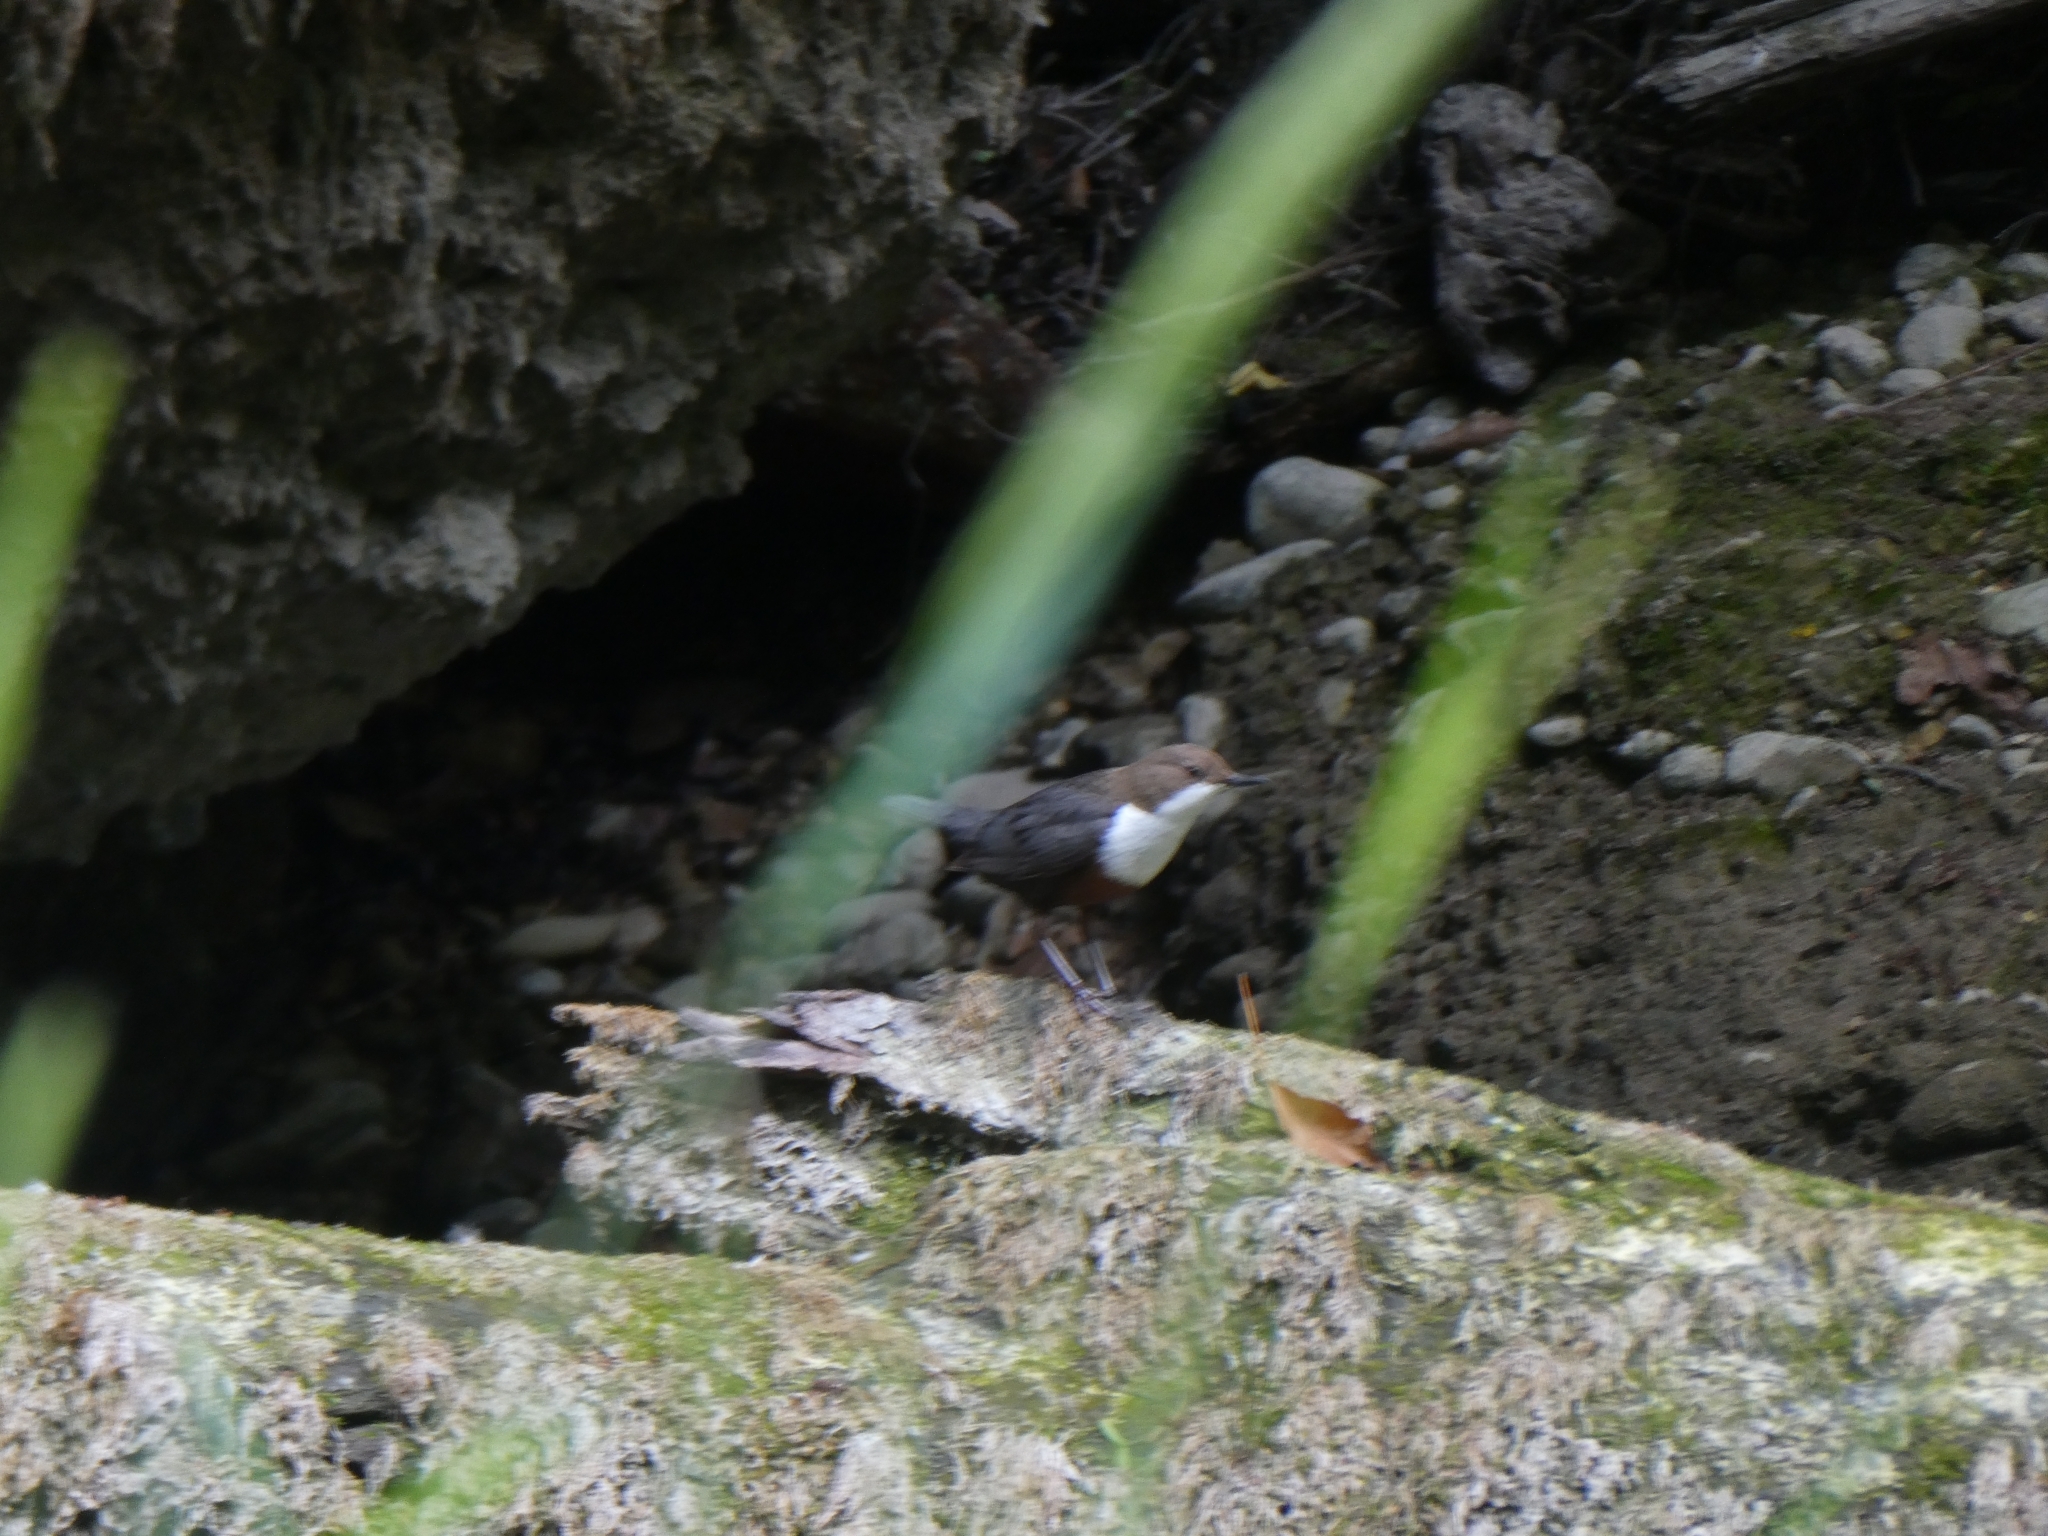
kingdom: Animalia
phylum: Chordata
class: Aves
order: Passeriformes
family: Cinclidae
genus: Cinclus
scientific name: Cinclus cinclus
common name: White-throated dipper
